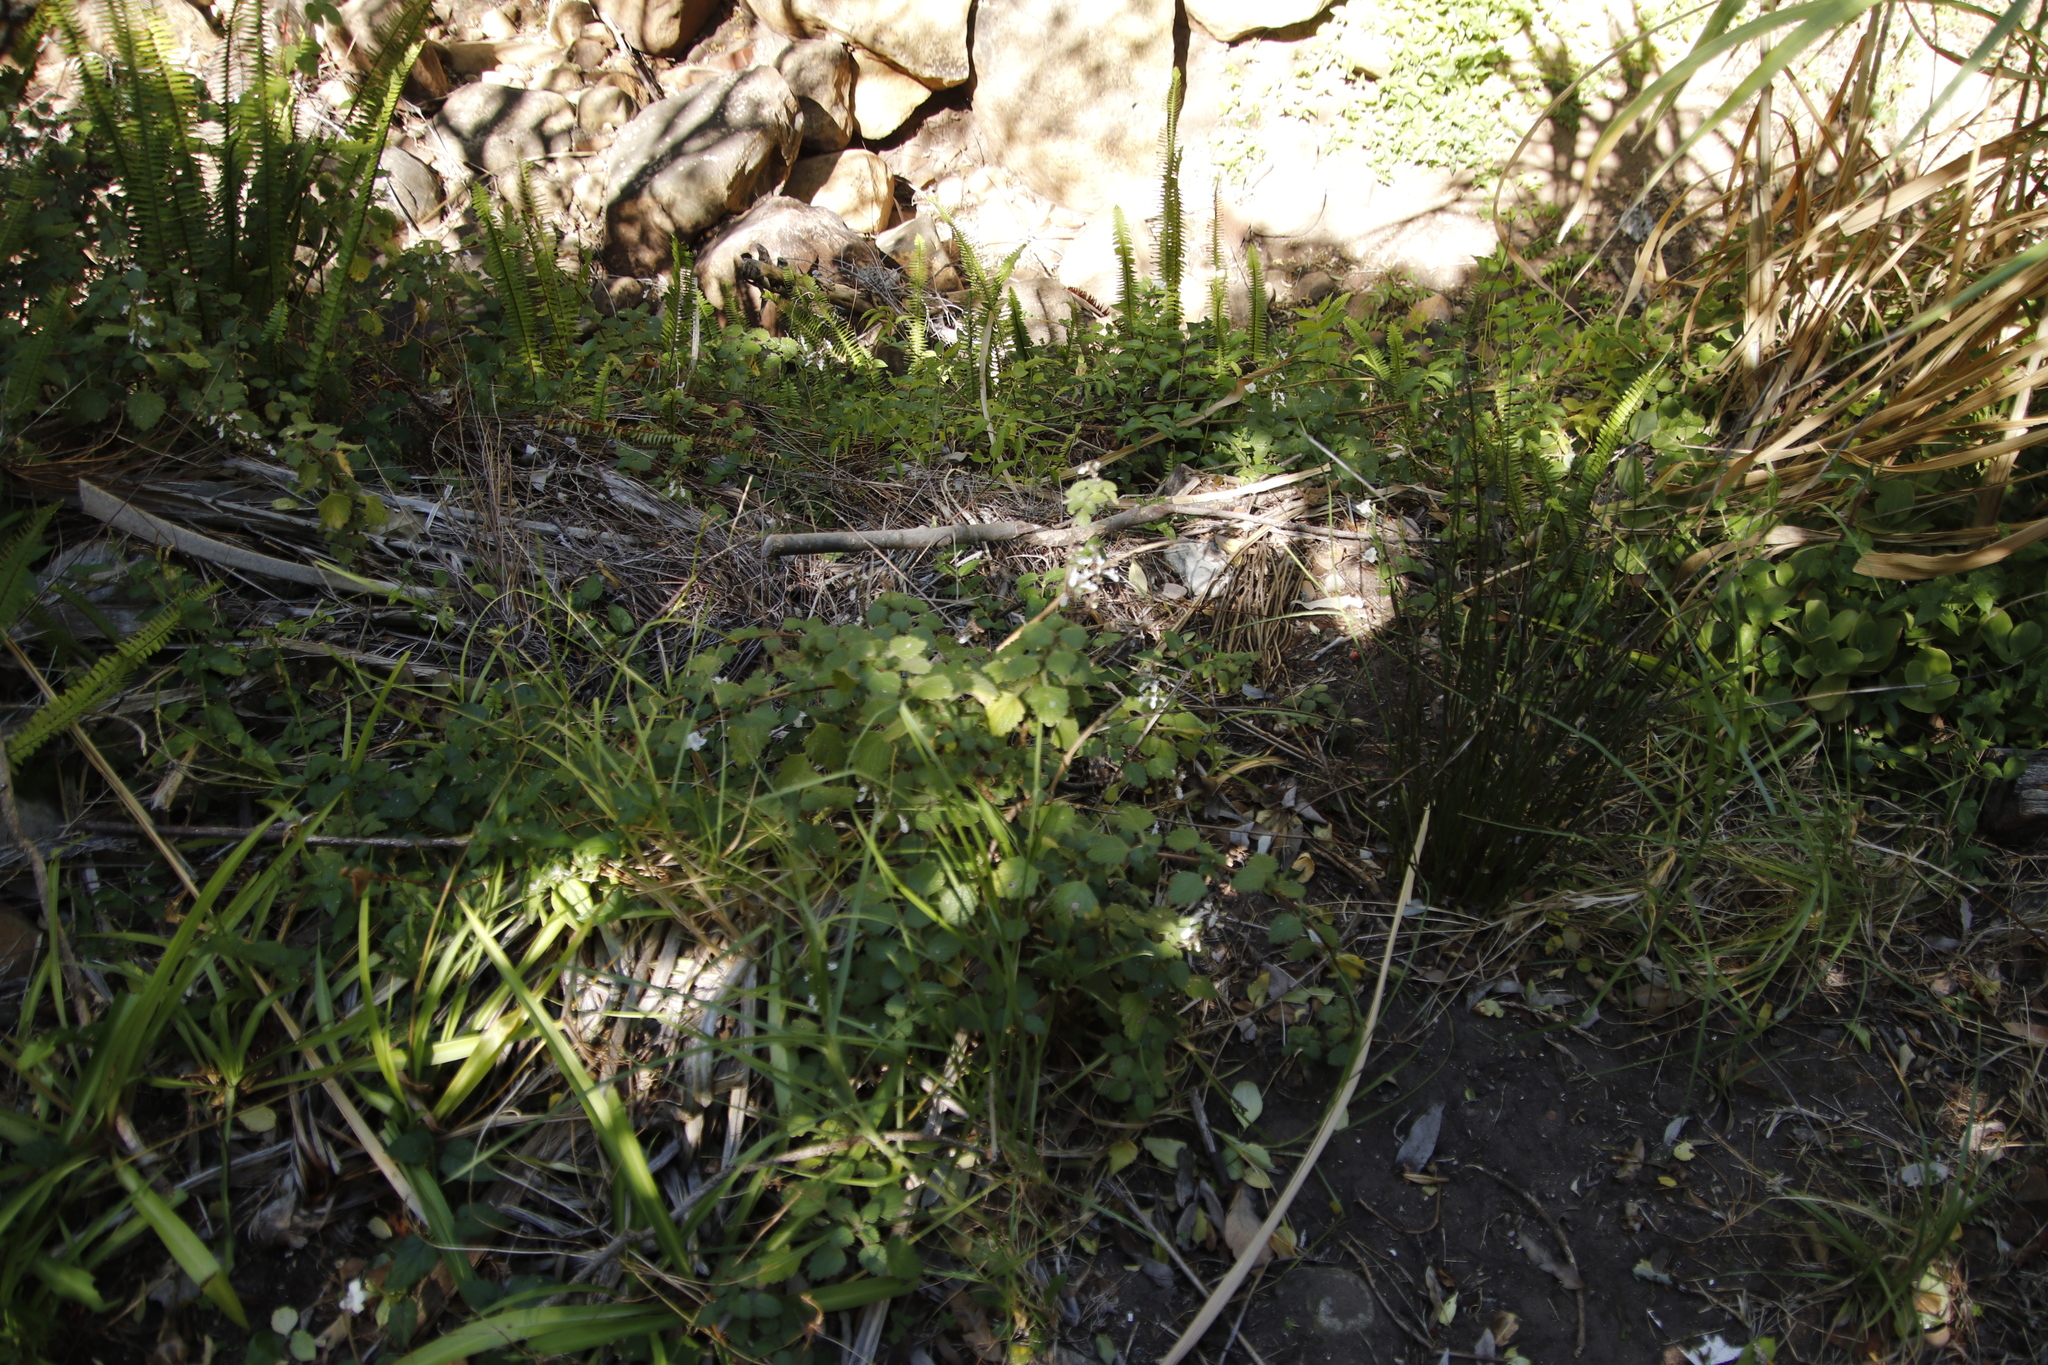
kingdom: Plantae
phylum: Tracheophyta
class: Magnoliopsida
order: Lamiales
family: Lamiaceae
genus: Coleus
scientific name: Coleus madagascariensis
